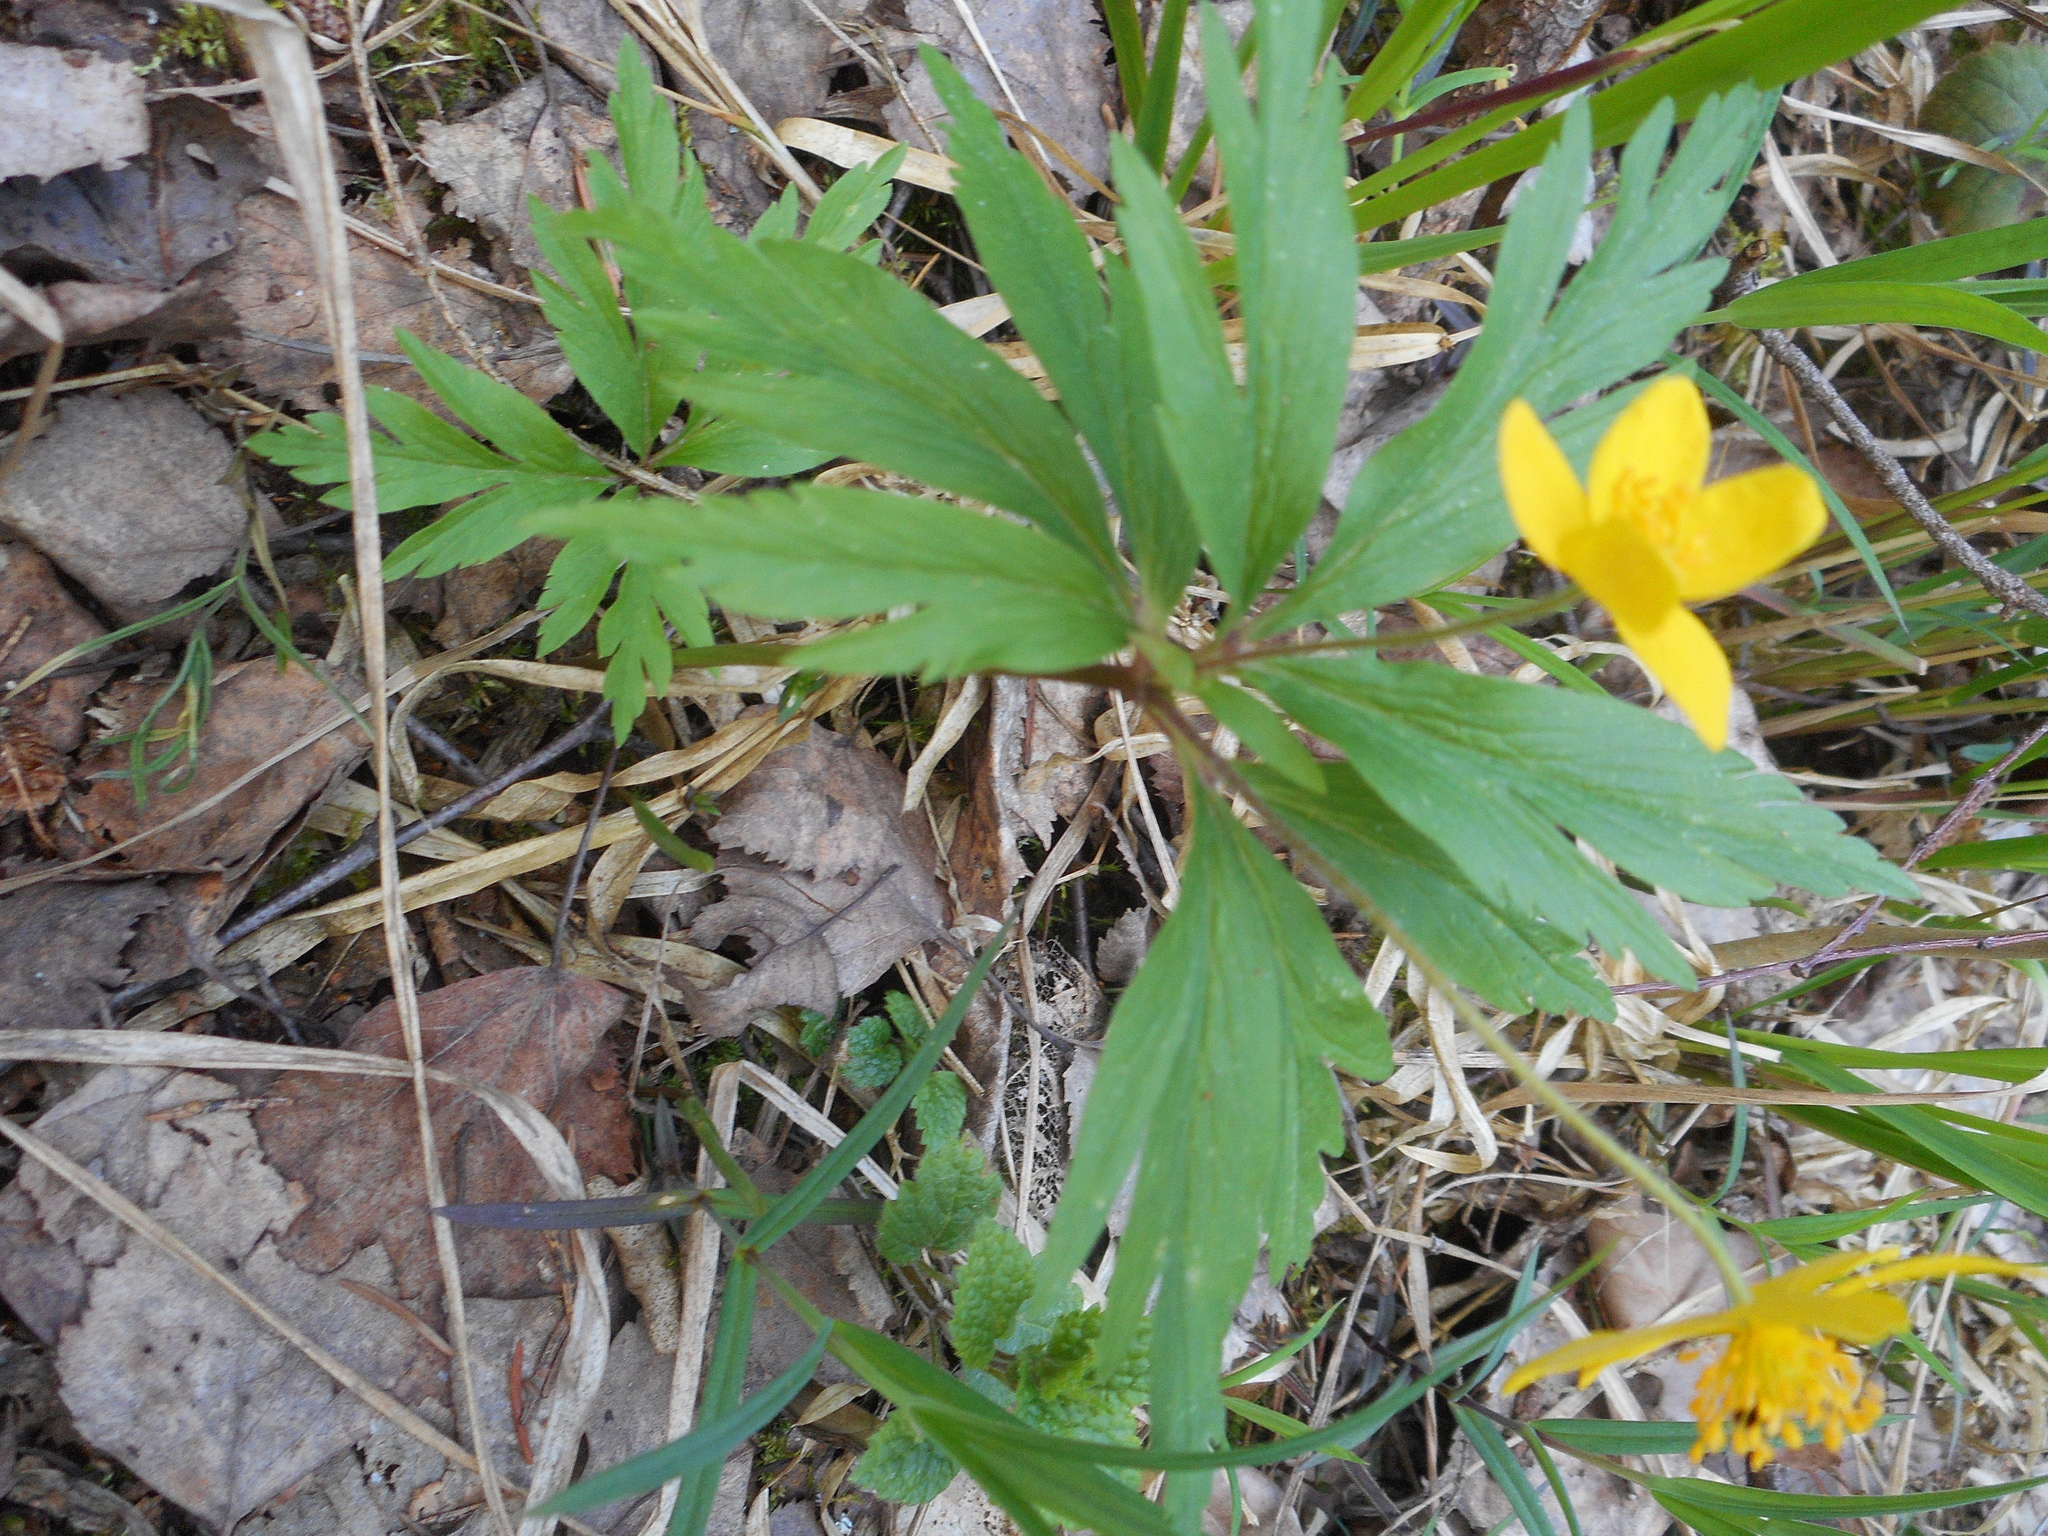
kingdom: Plantae
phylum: Tracheophyta
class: Magnoliopsida
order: Ranunculales
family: Ranunculaceae
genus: Anemone
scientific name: Anemone ranunculoides
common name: Yellow anemone
